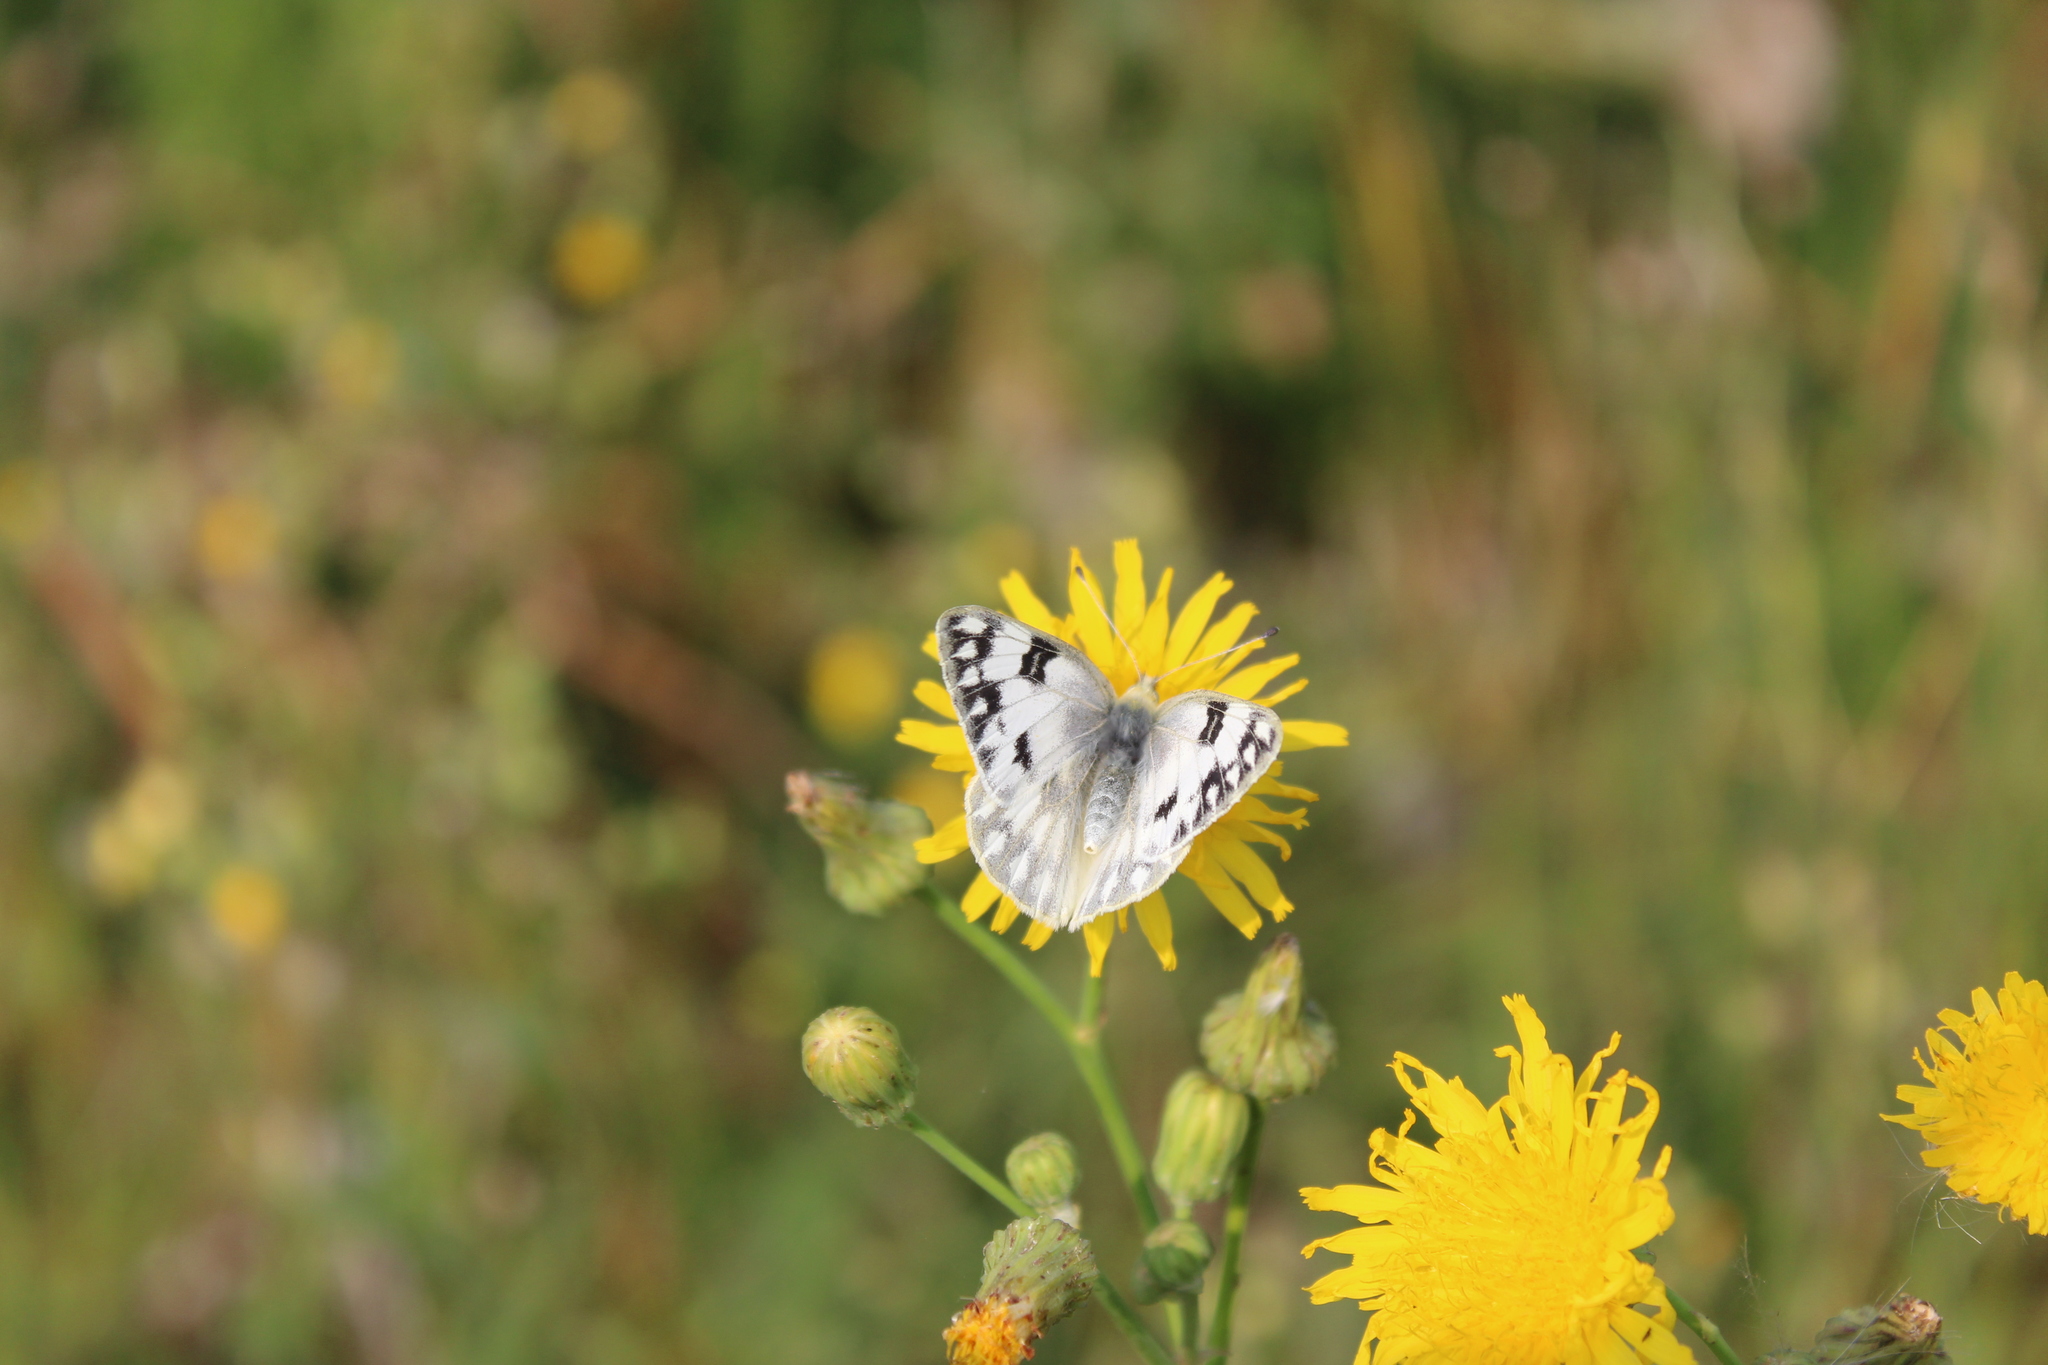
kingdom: Animalia
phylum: Arthropoda
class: Insecta
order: Lepidoptera
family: Pieridae
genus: Pontia
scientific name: Pontia protodice
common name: Checkered white
